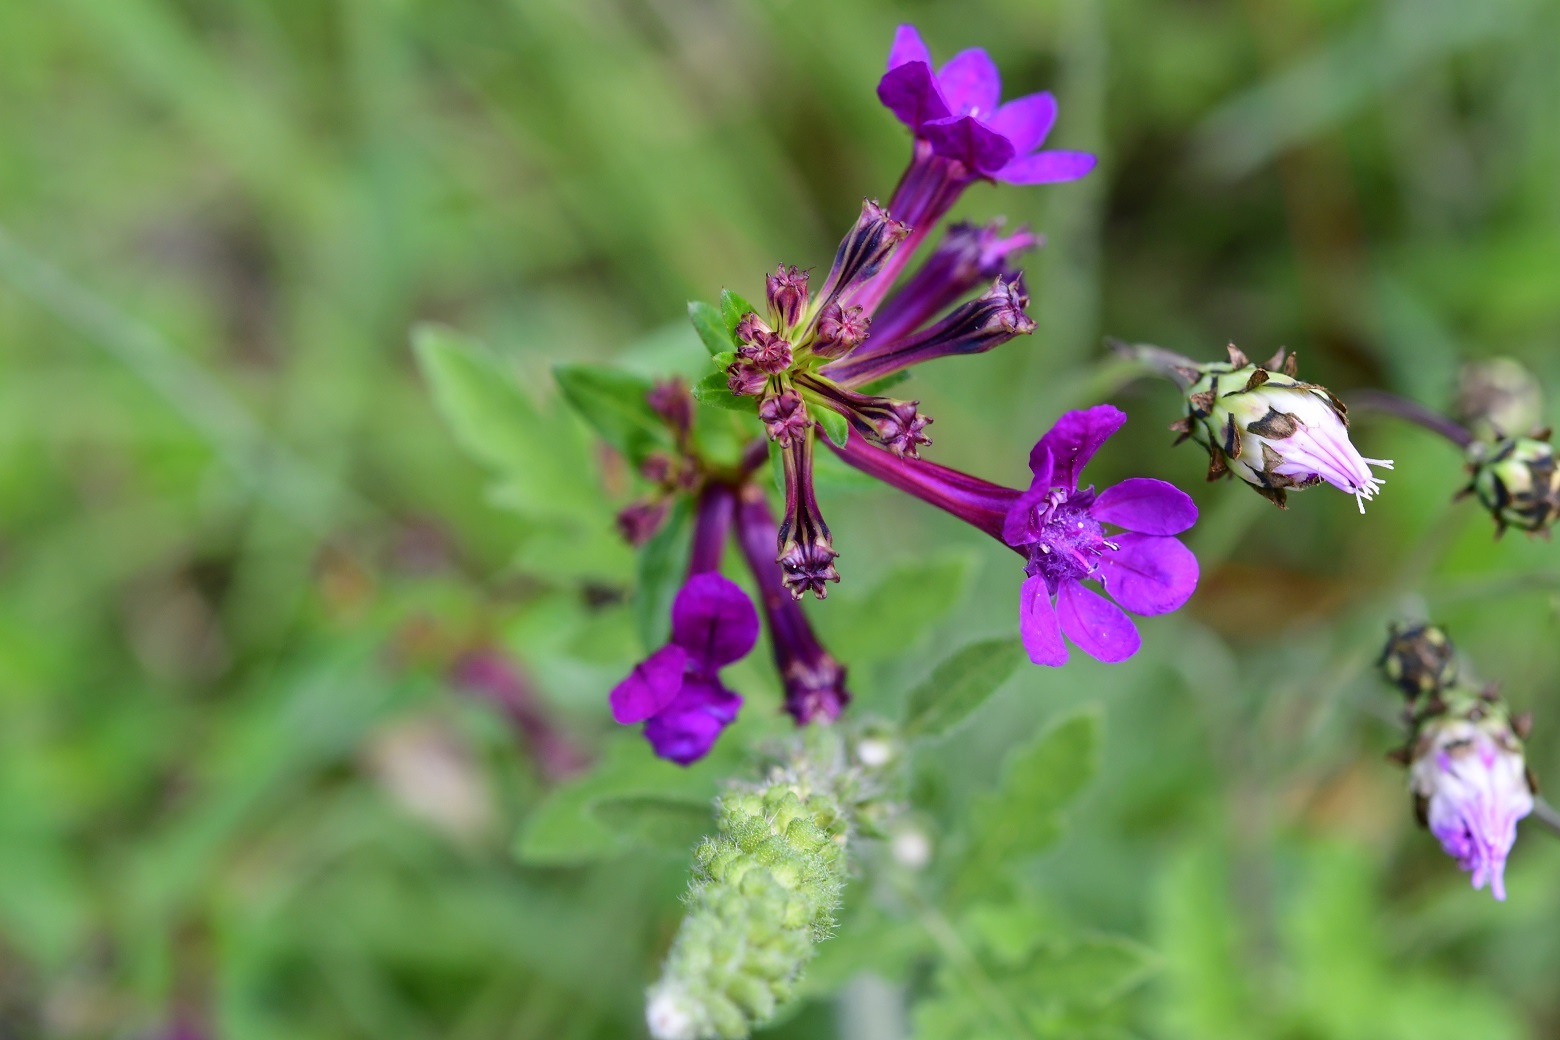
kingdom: Plantae
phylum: Tracheophyta
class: Magnoliopsida
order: Myrtales
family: Lythraceae
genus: Cuphea
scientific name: Cuphea aequipetala
